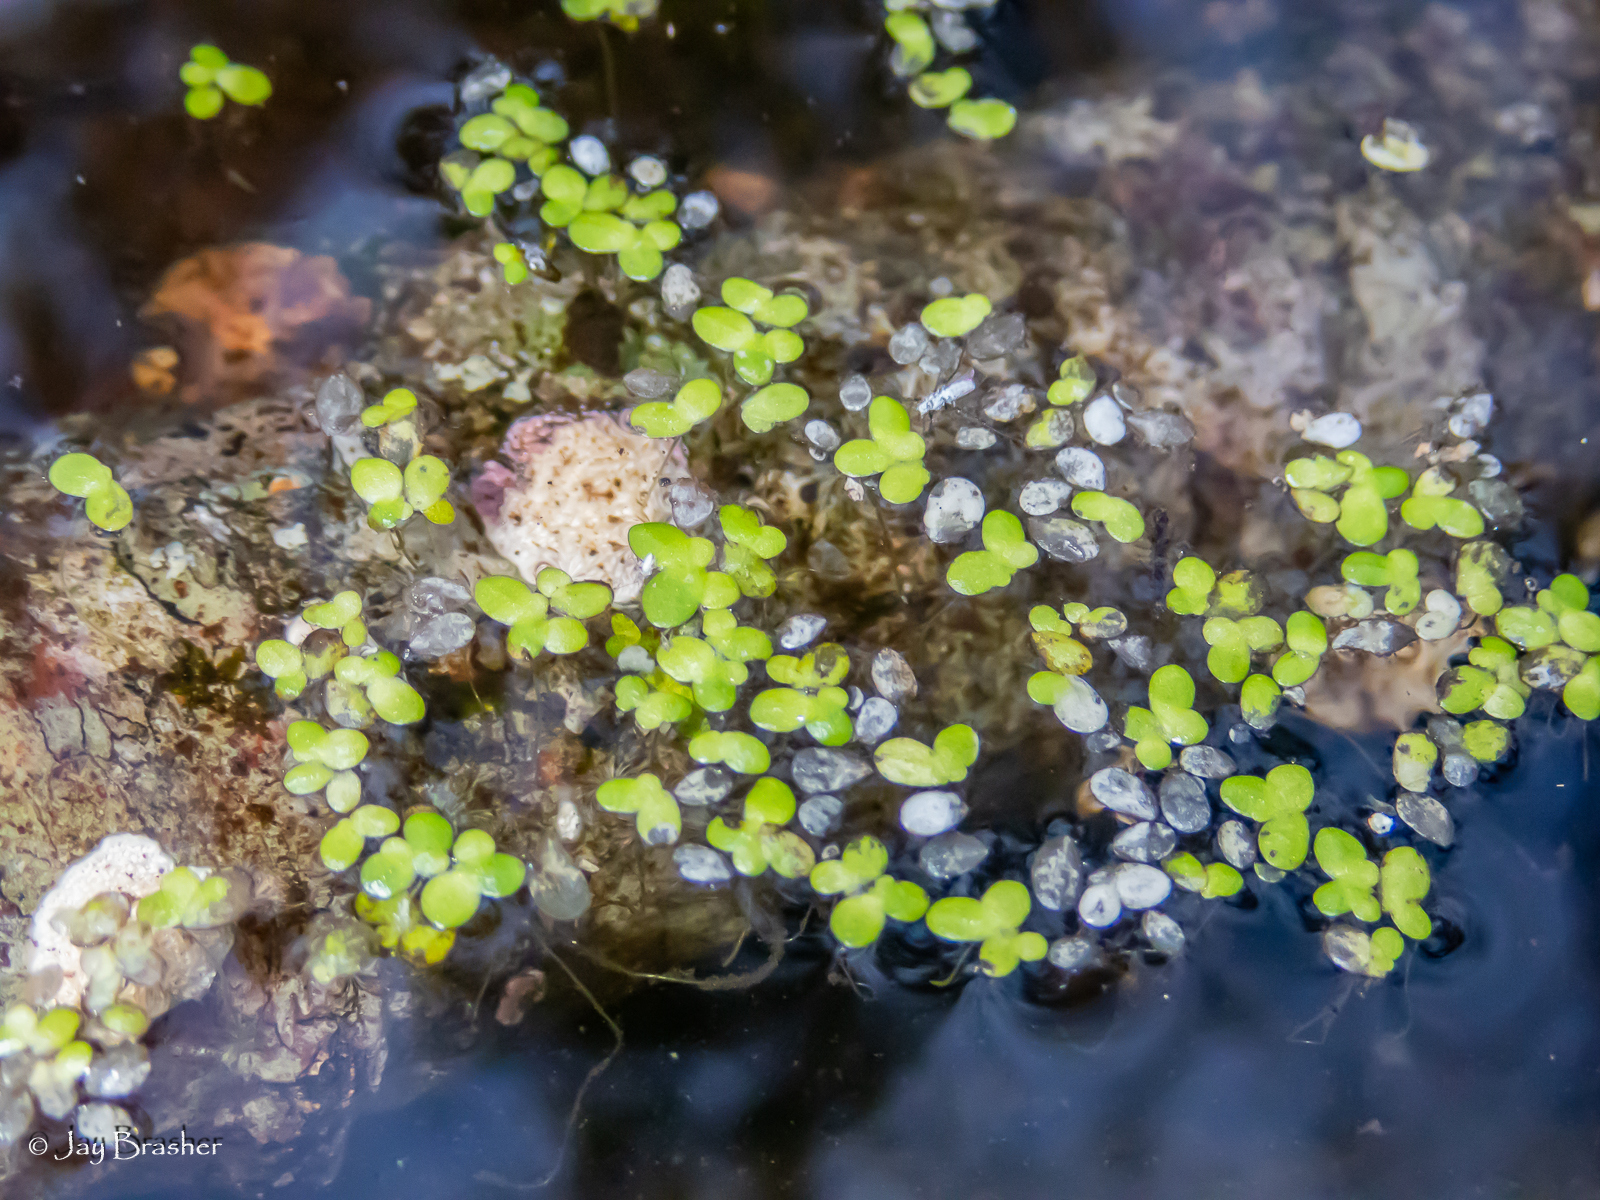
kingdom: Plantae
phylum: Tracheophyta
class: Liliopsida
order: Alismatales
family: Araceae
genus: Lemna
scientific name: Lemna minor
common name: Common duckweed
